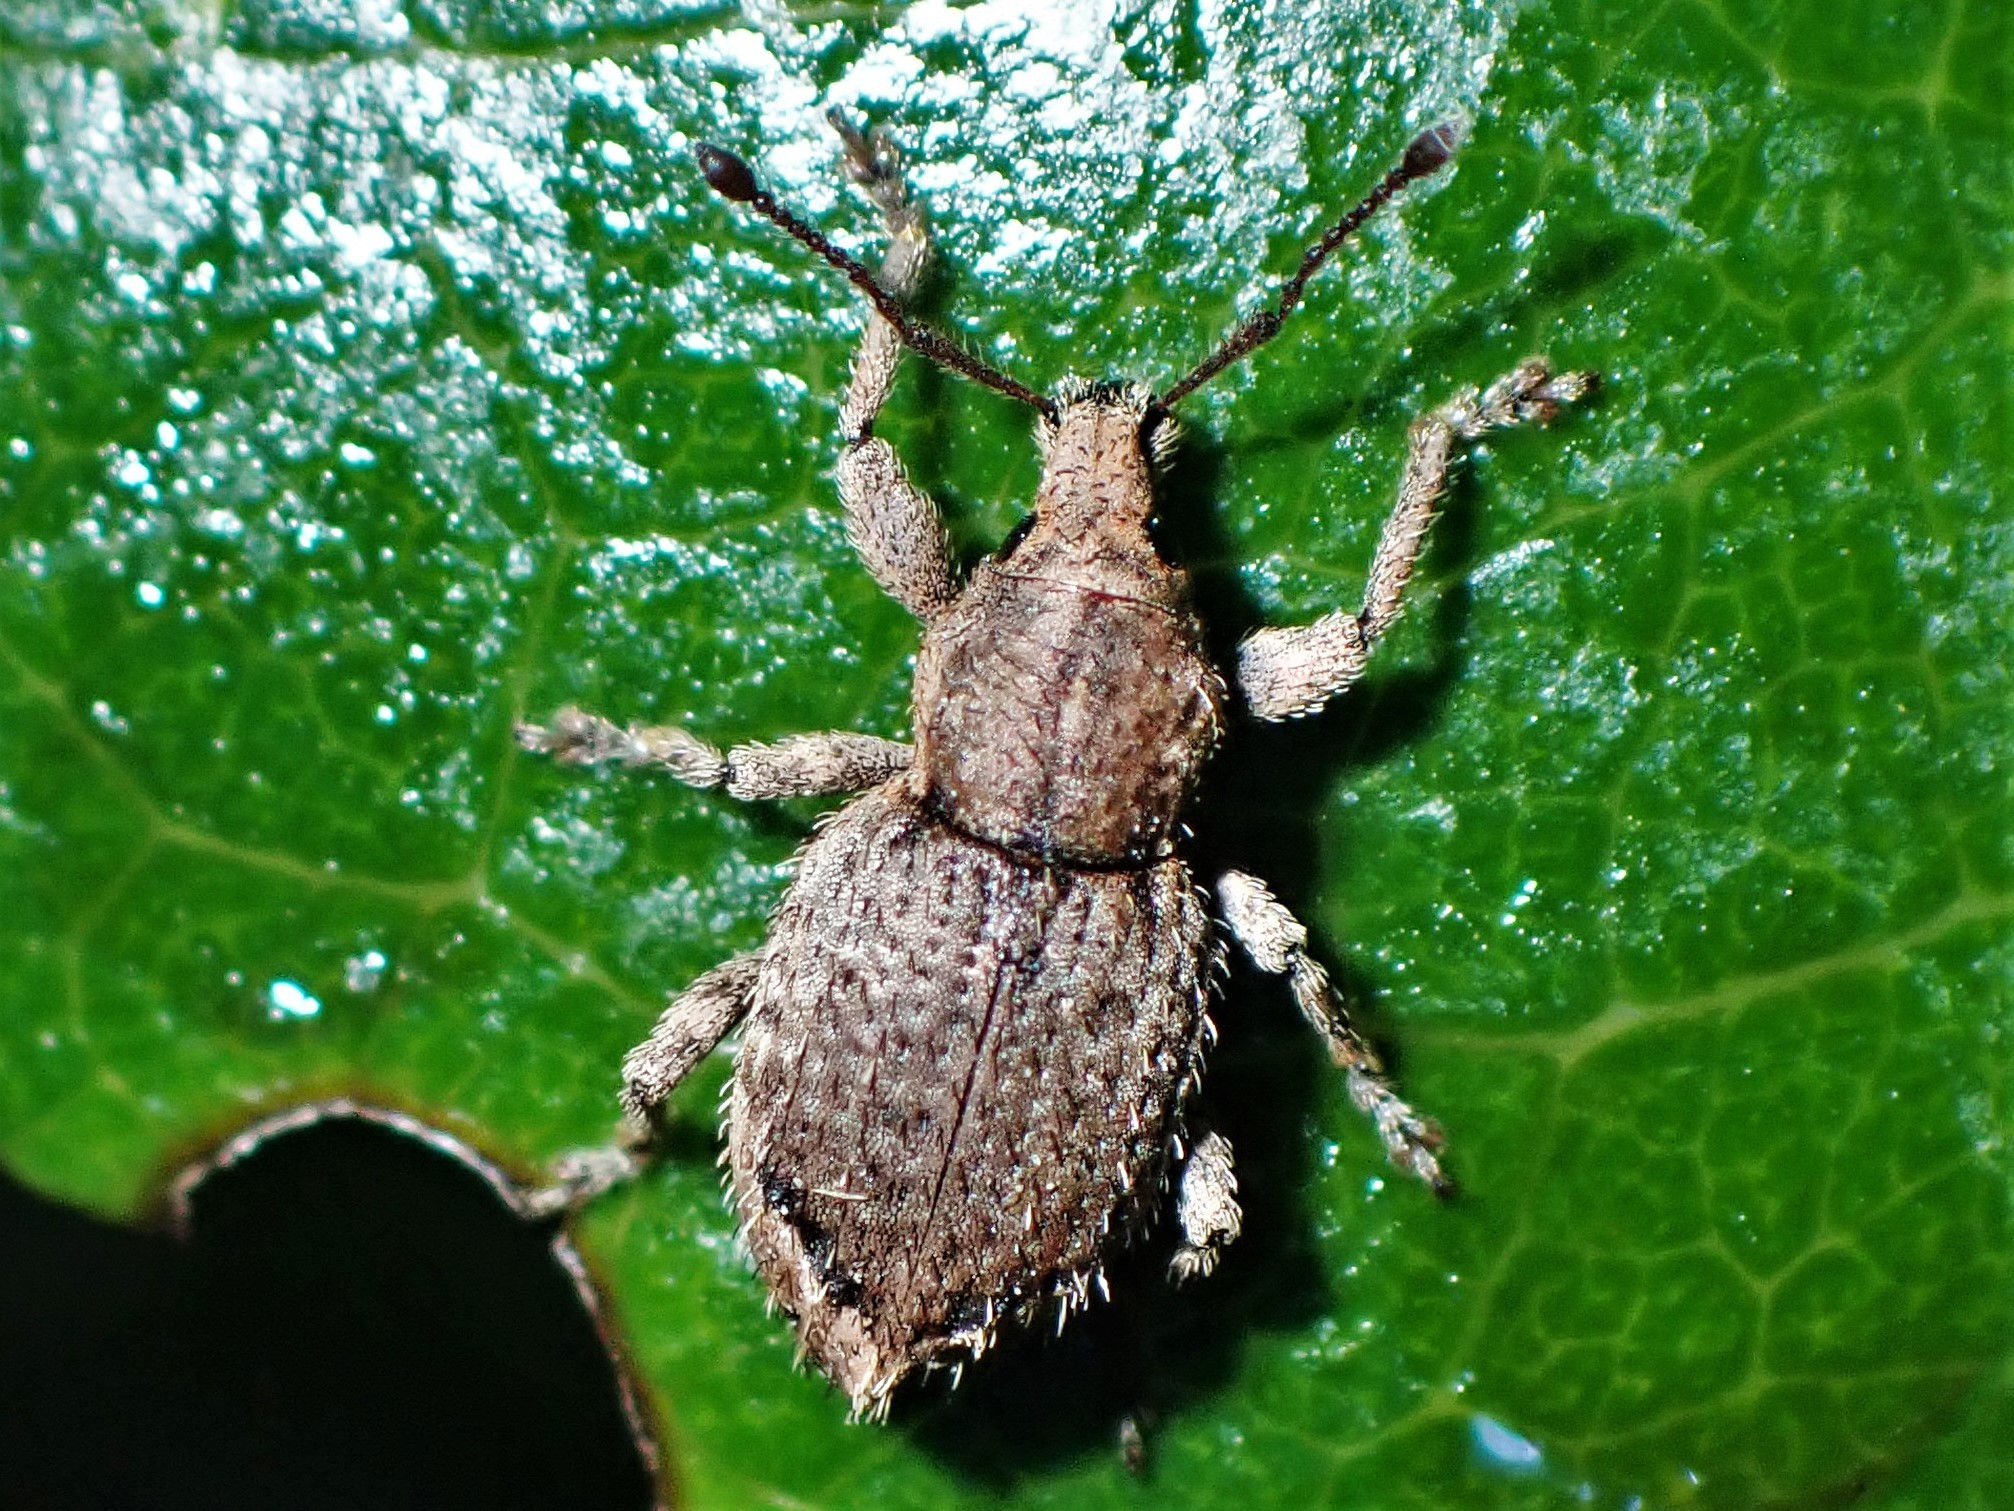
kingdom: Animalia
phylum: Arthropoda
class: Insecta
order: Coleoptera
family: Curculionidae
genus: Chalepistes
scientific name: Chalepistes compressus
